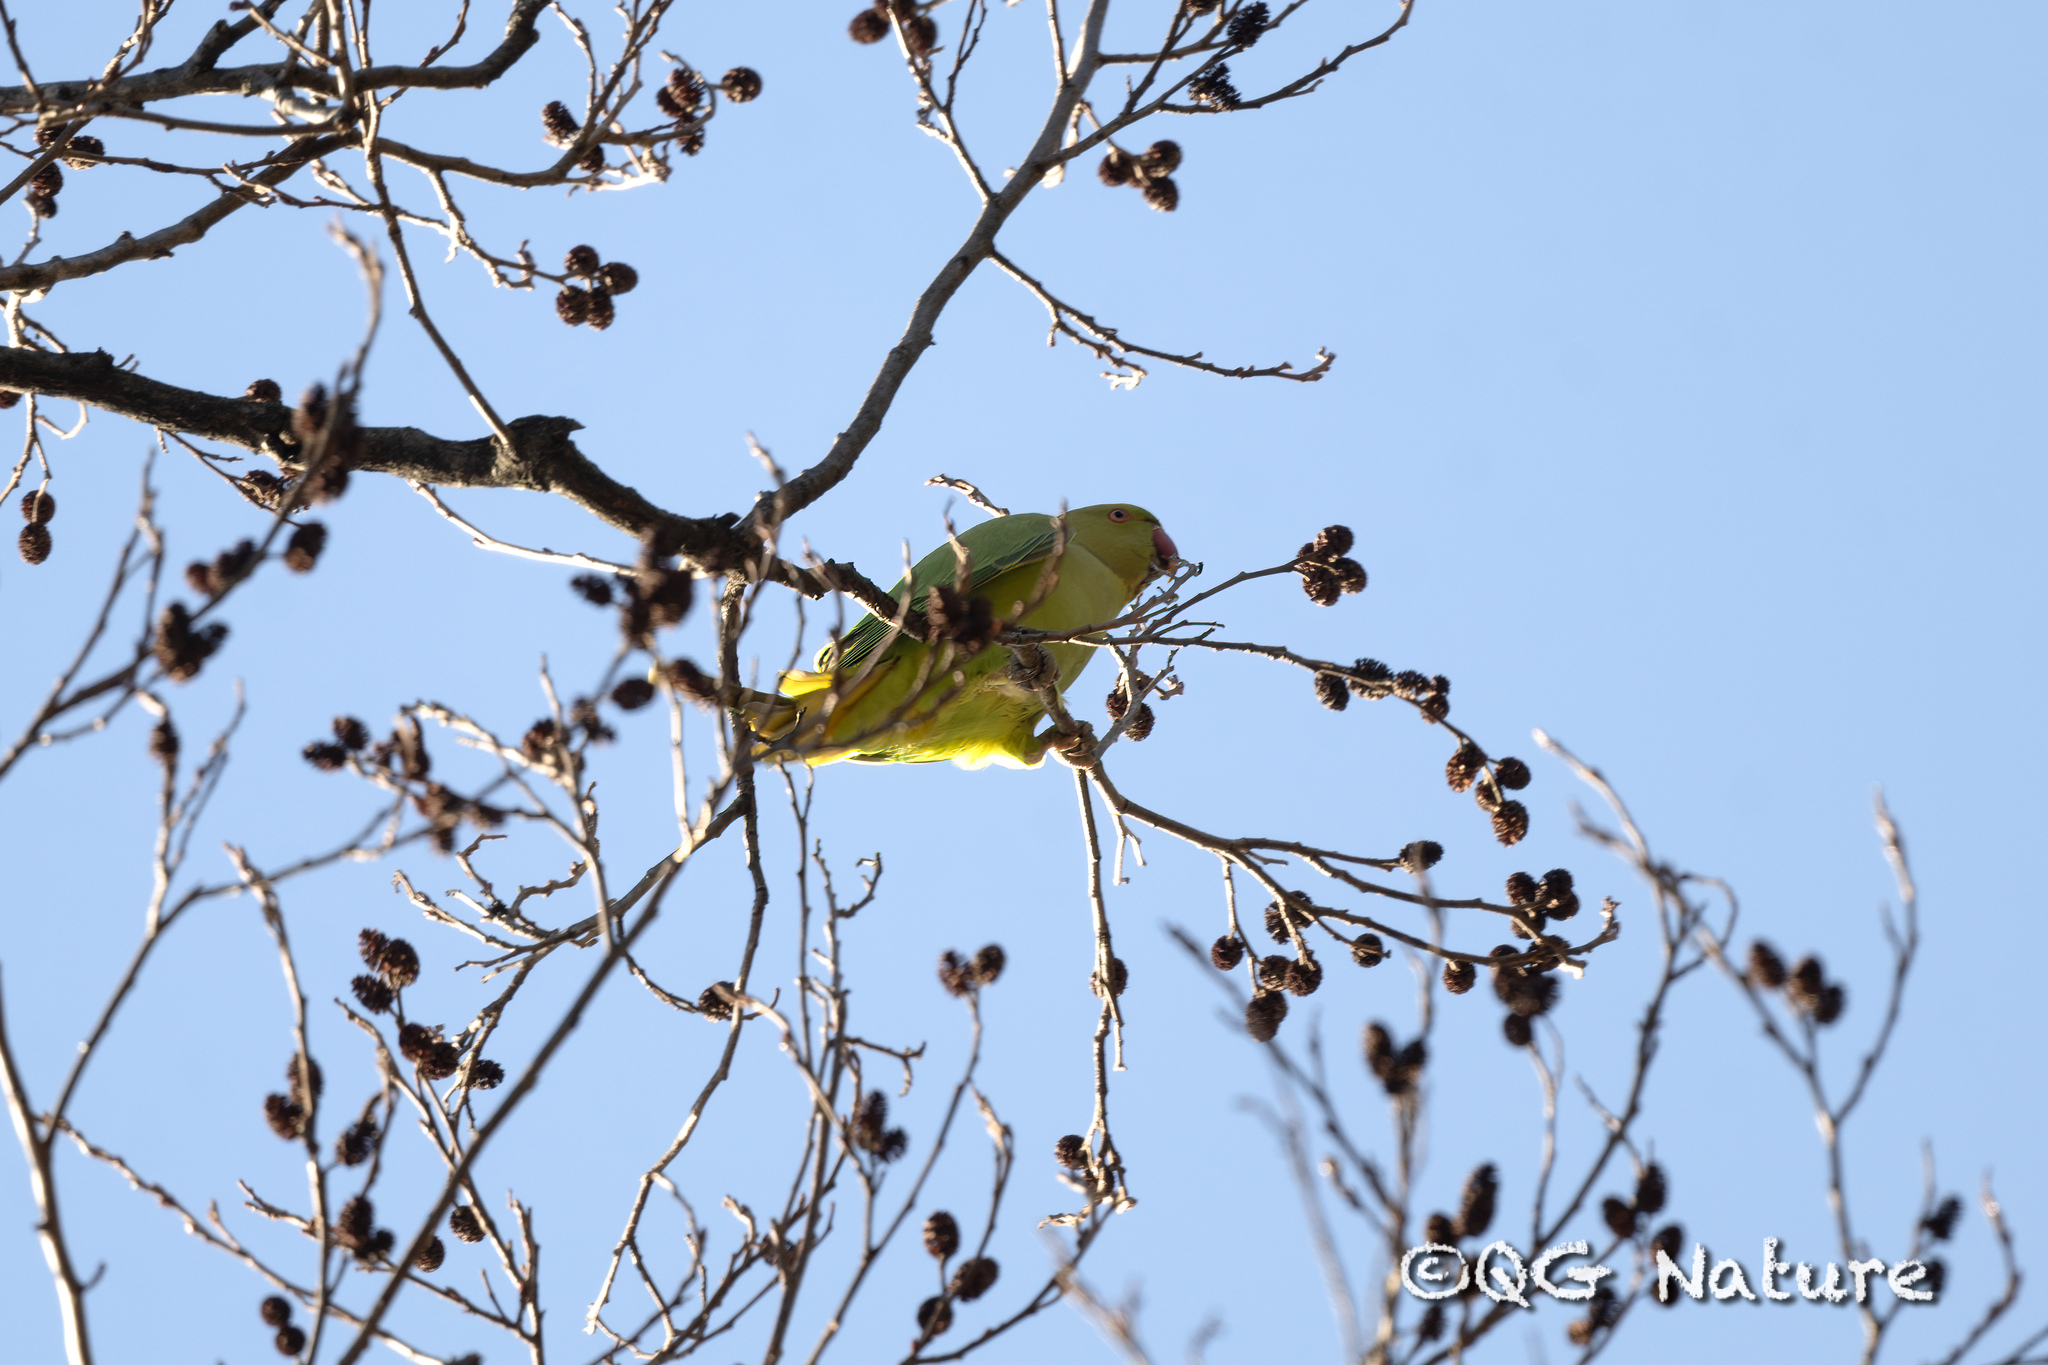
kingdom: Animalia
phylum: Chordata
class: Aves
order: Psittaciformes
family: Psittacidae
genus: Psittacula
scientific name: Psittacula krameri
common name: Rose-ringed parakeet
